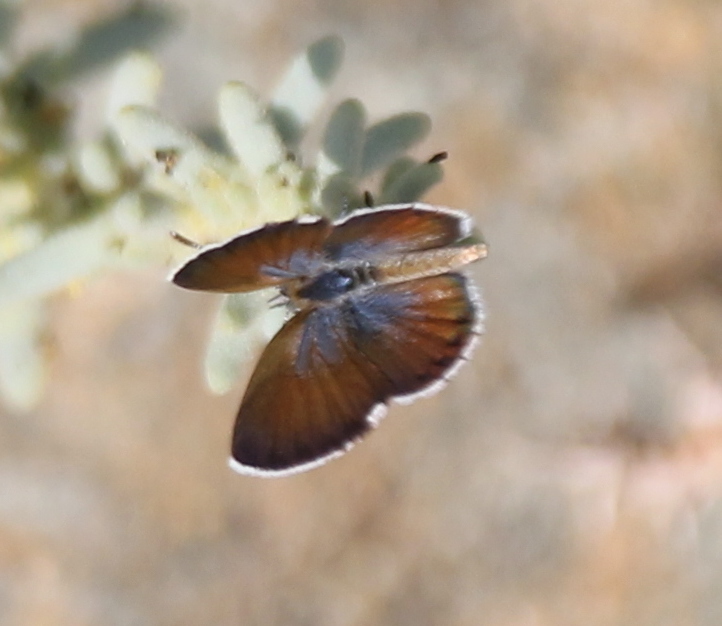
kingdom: Animalia
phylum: Arthropoda
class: Insecta
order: Lepidoptera
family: Lycaenidae
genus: Brephidium
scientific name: Brephidium exilis
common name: Pygmy blue
